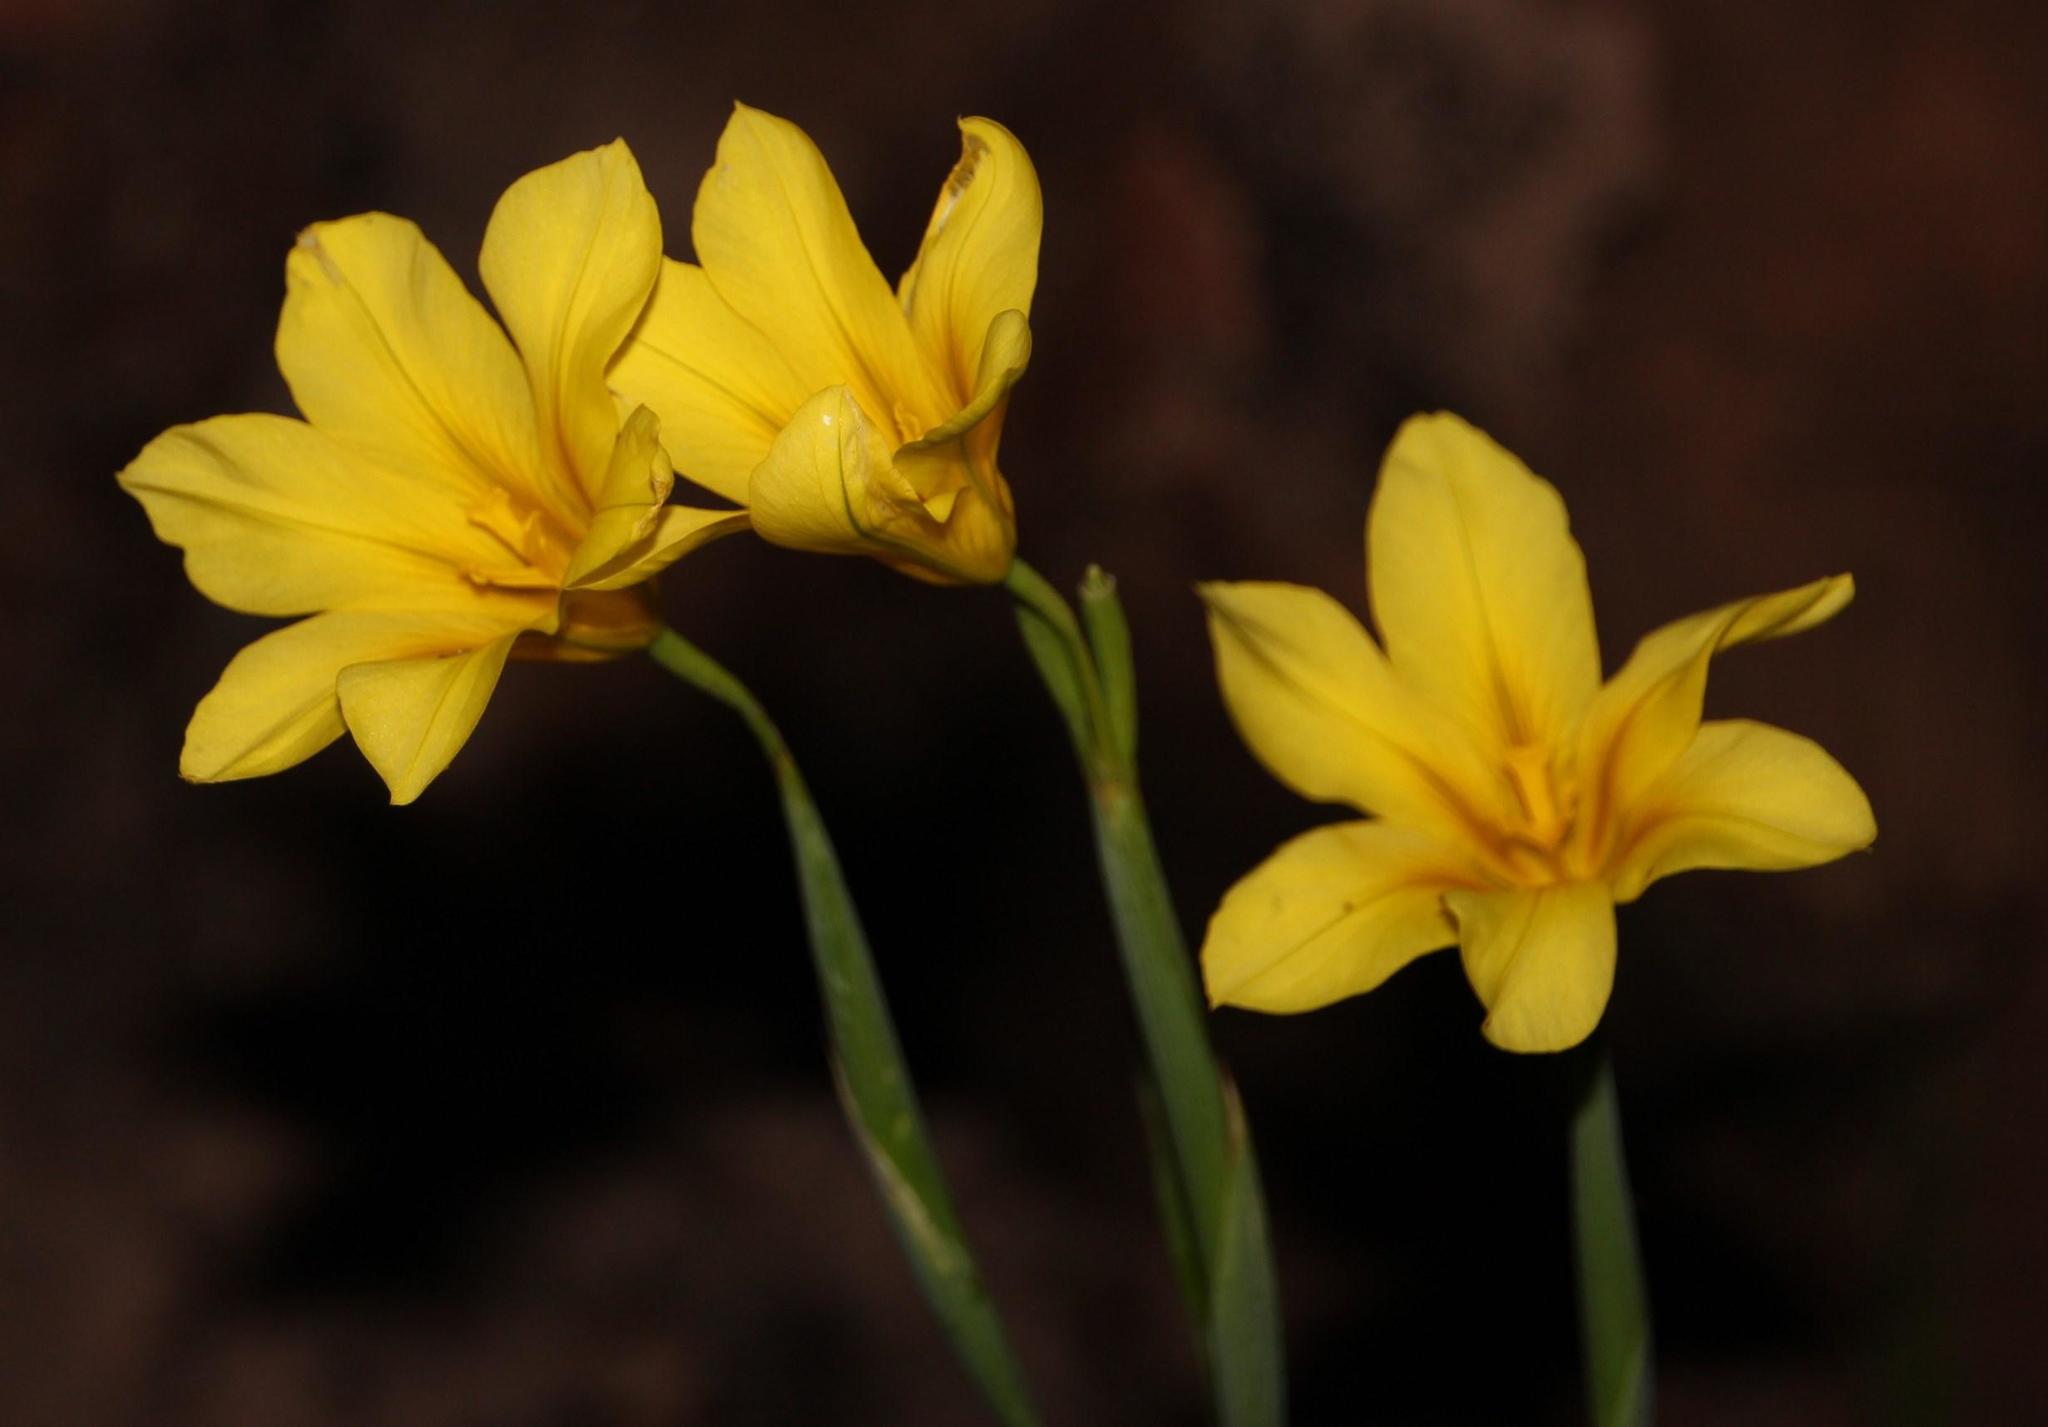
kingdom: Plantae
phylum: Tracheophyta
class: Liliopsida
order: Asparagales
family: Iridaceae
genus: Moraea
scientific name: Moraea ochroleuca
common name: Red tulp
